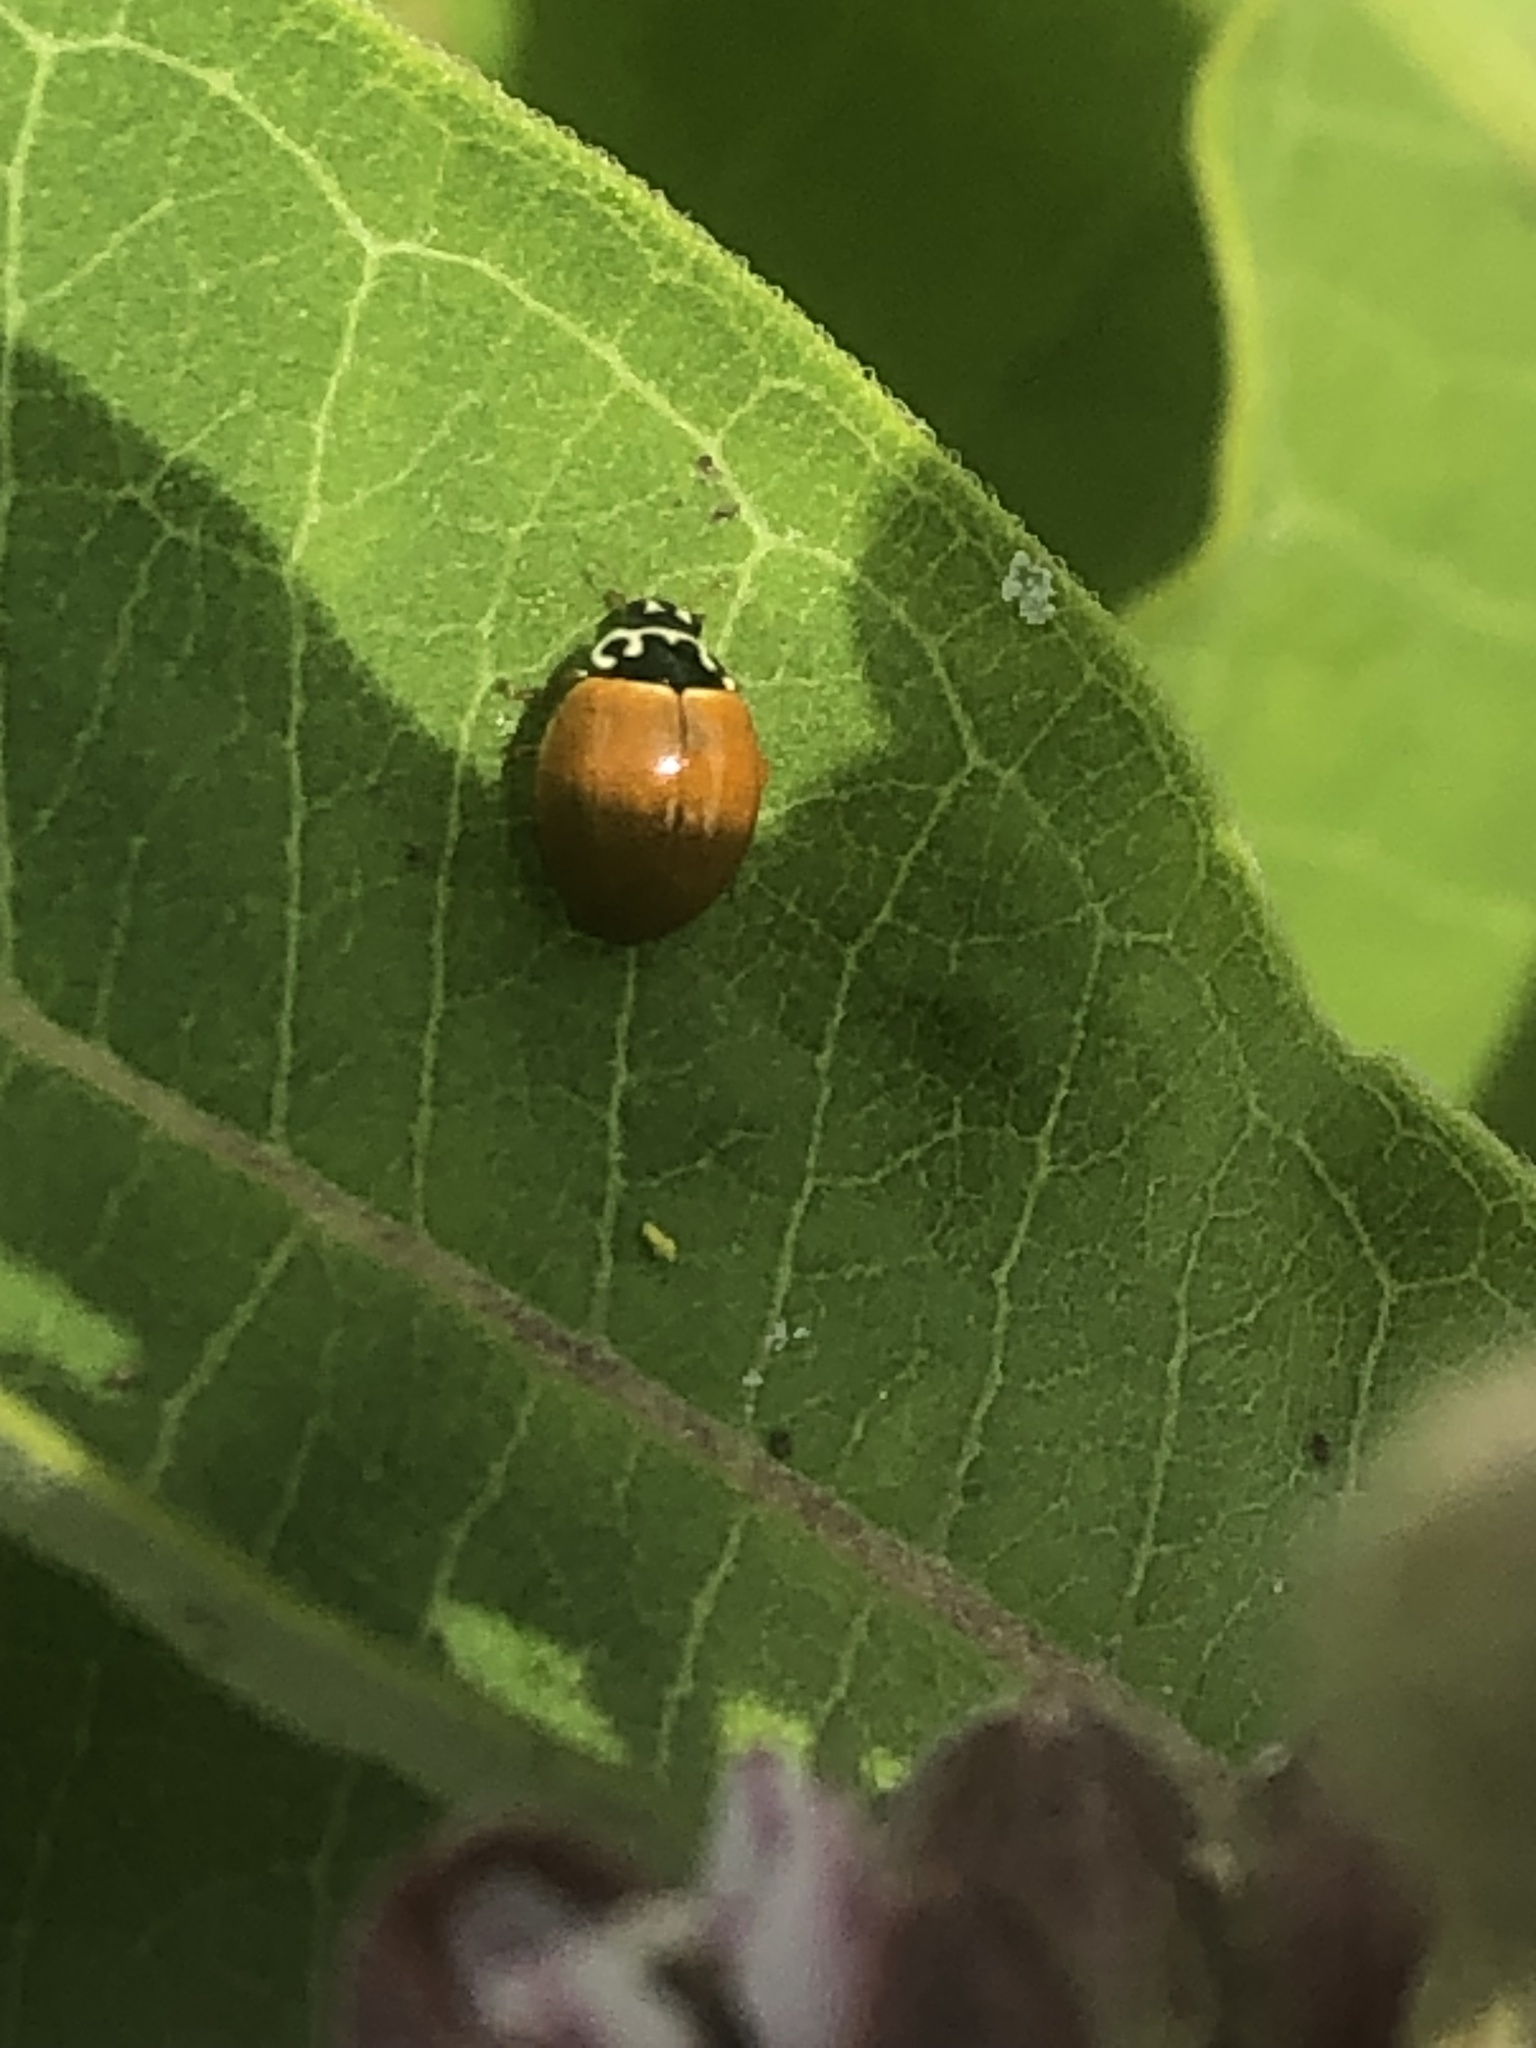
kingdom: Animalia
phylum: Arthropoda
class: Insecta
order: Coleoptera
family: Coccinellidae
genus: Cycloneda
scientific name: Cycloneda munda
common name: Polished lady beetle
